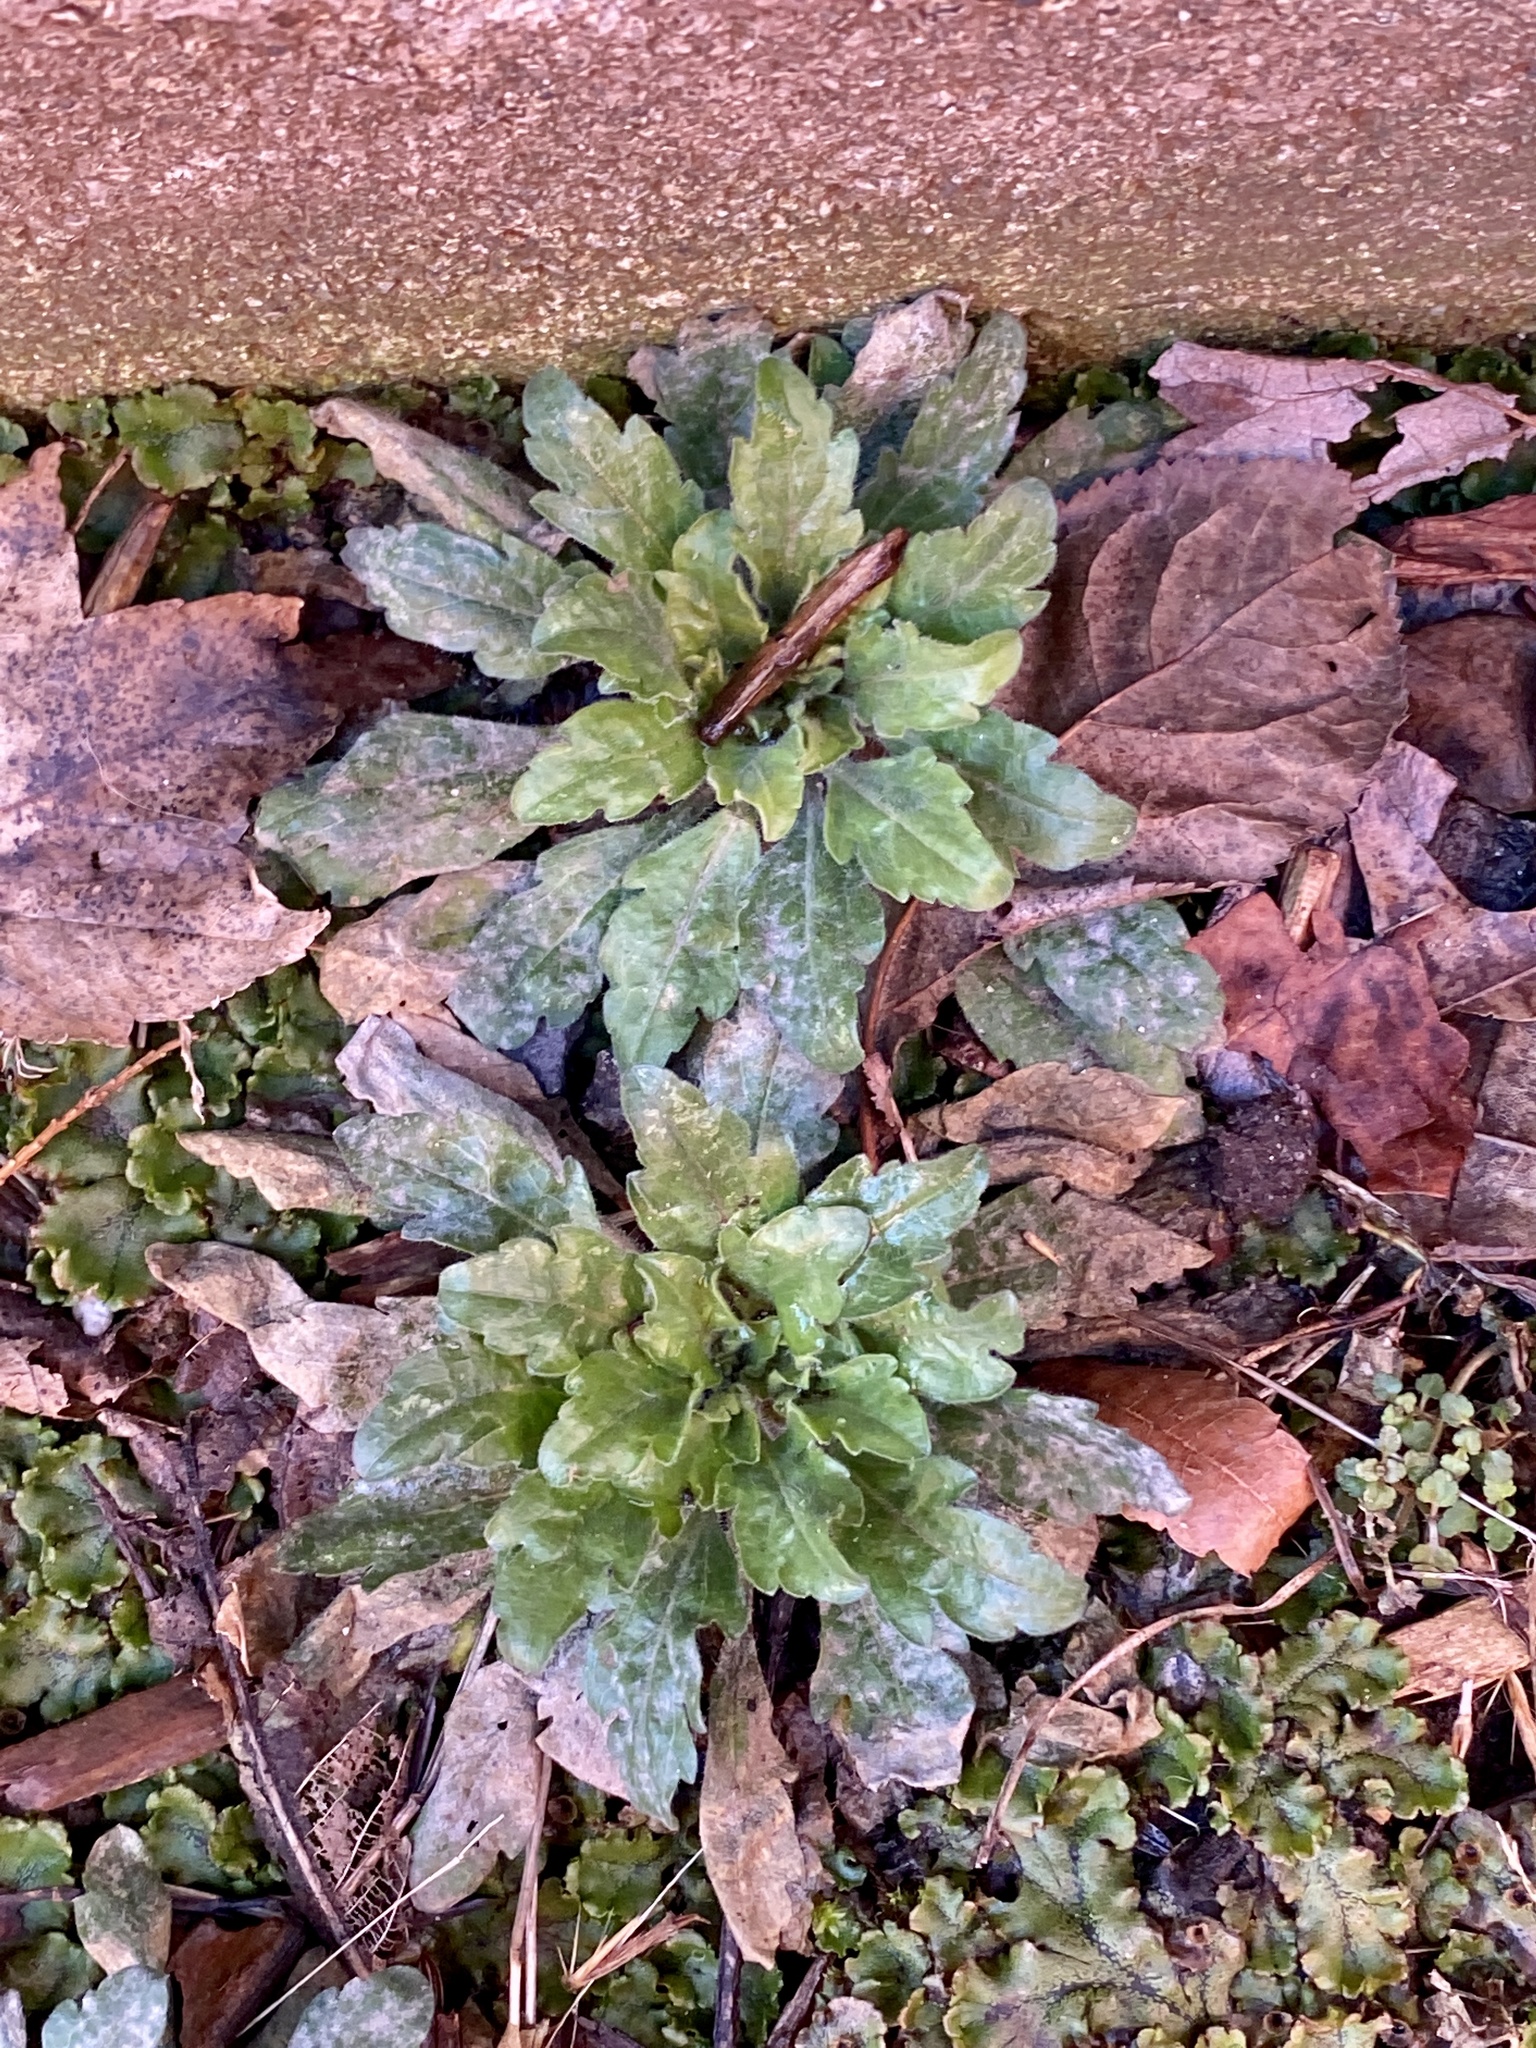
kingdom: Plantae
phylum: Tracheophyta
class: Magnoliopsida
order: Asterales
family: Asteraceae
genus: Erigeron
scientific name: Erigeron canadensis
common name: Canadian fleabane
